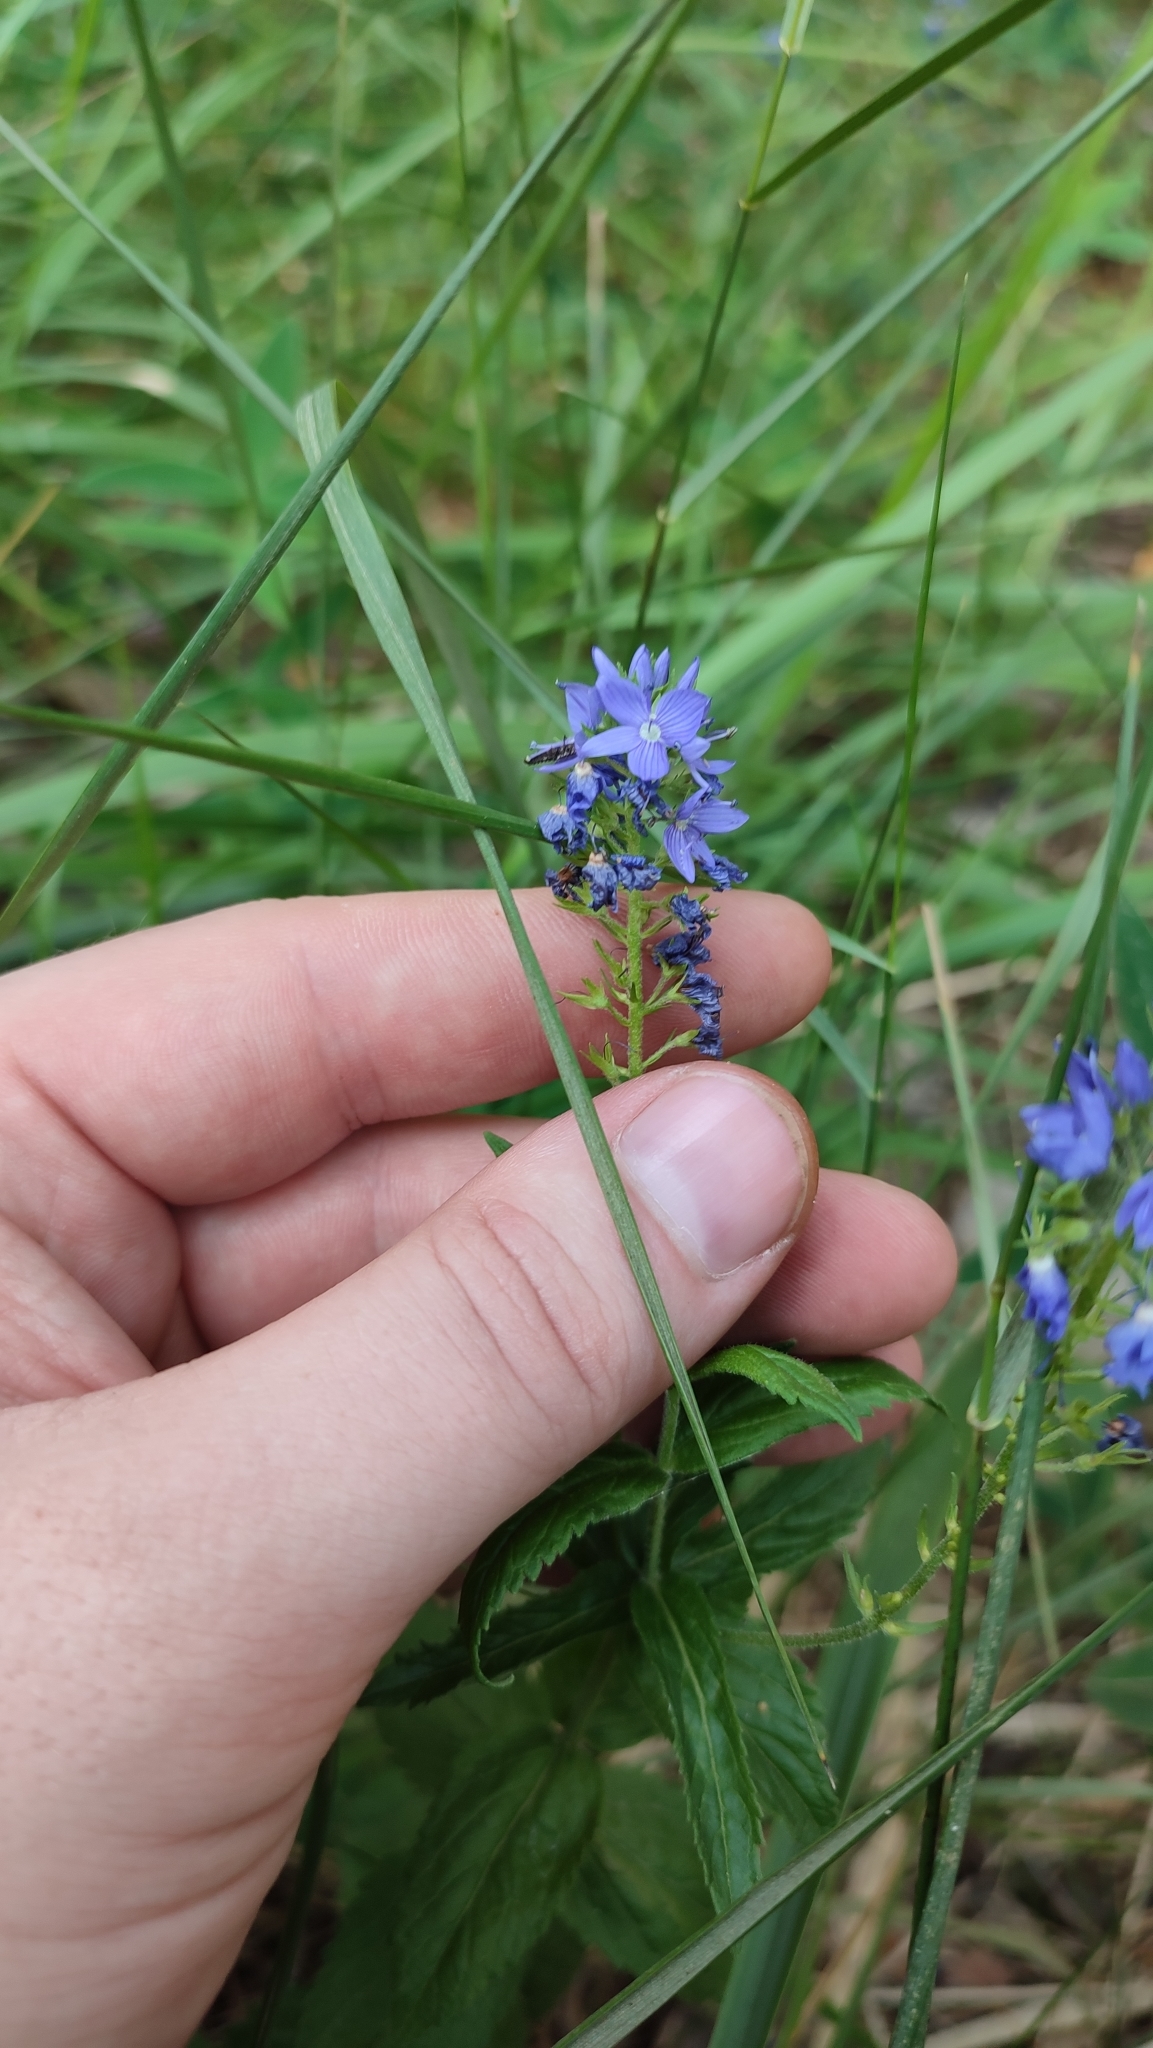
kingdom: Plantae
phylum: Tracheophyta
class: Magnoliopsida
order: Lamiales
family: Plantaginaceae
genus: Veronica
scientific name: Veronica teucrium
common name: Large speedwell
